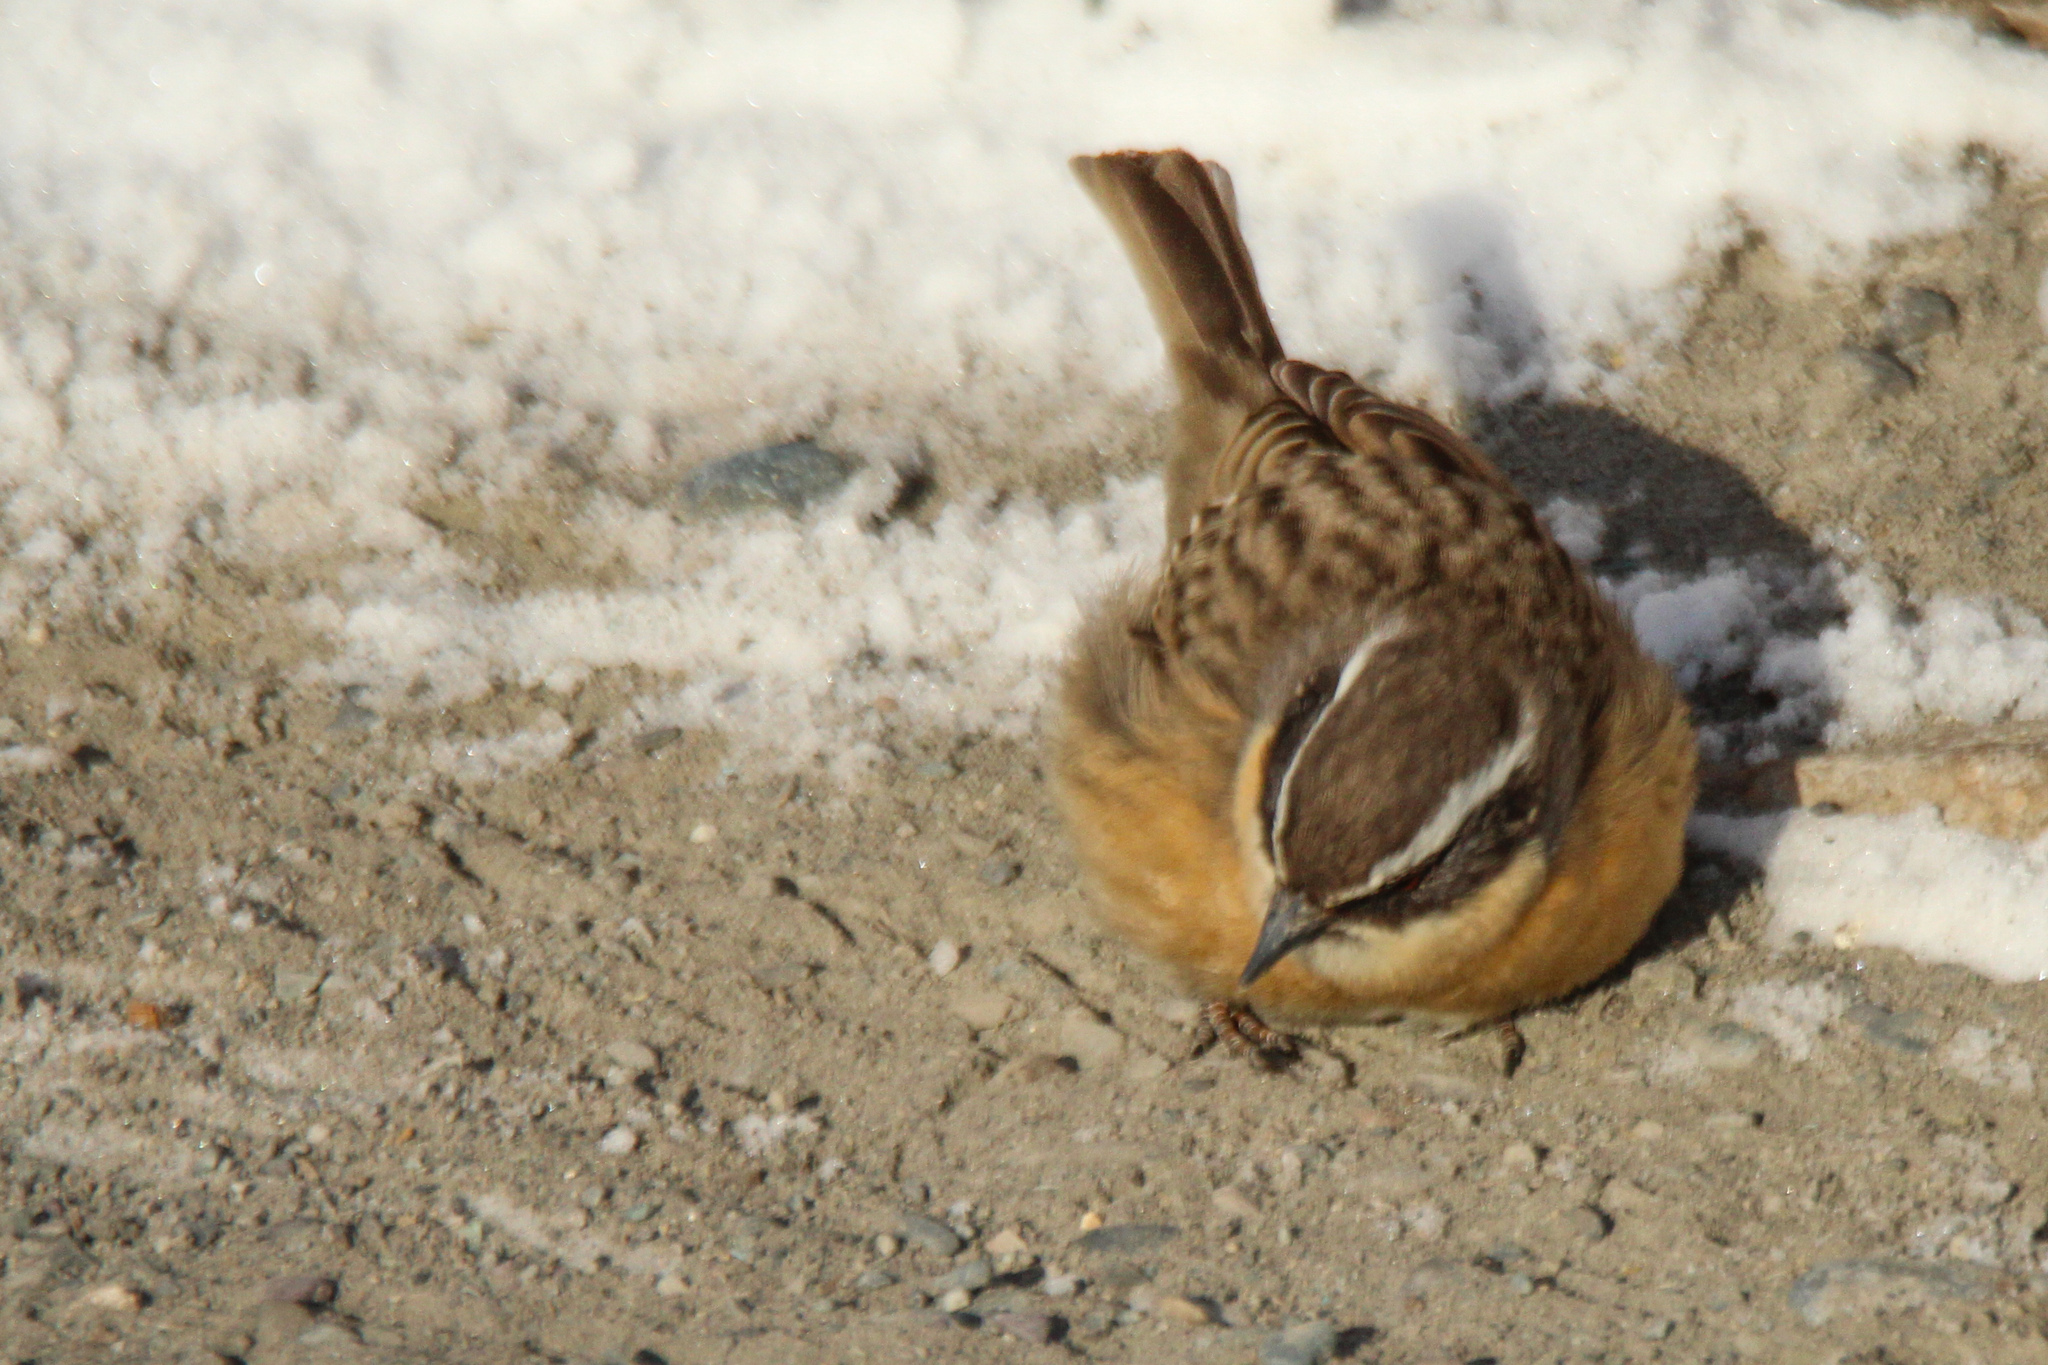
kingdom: Animalia
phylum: Chordata
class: Aves
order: Passeriformes
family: Prunellidae
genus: Prunella
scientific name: Prunella fulvescens
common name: Brown accentor
